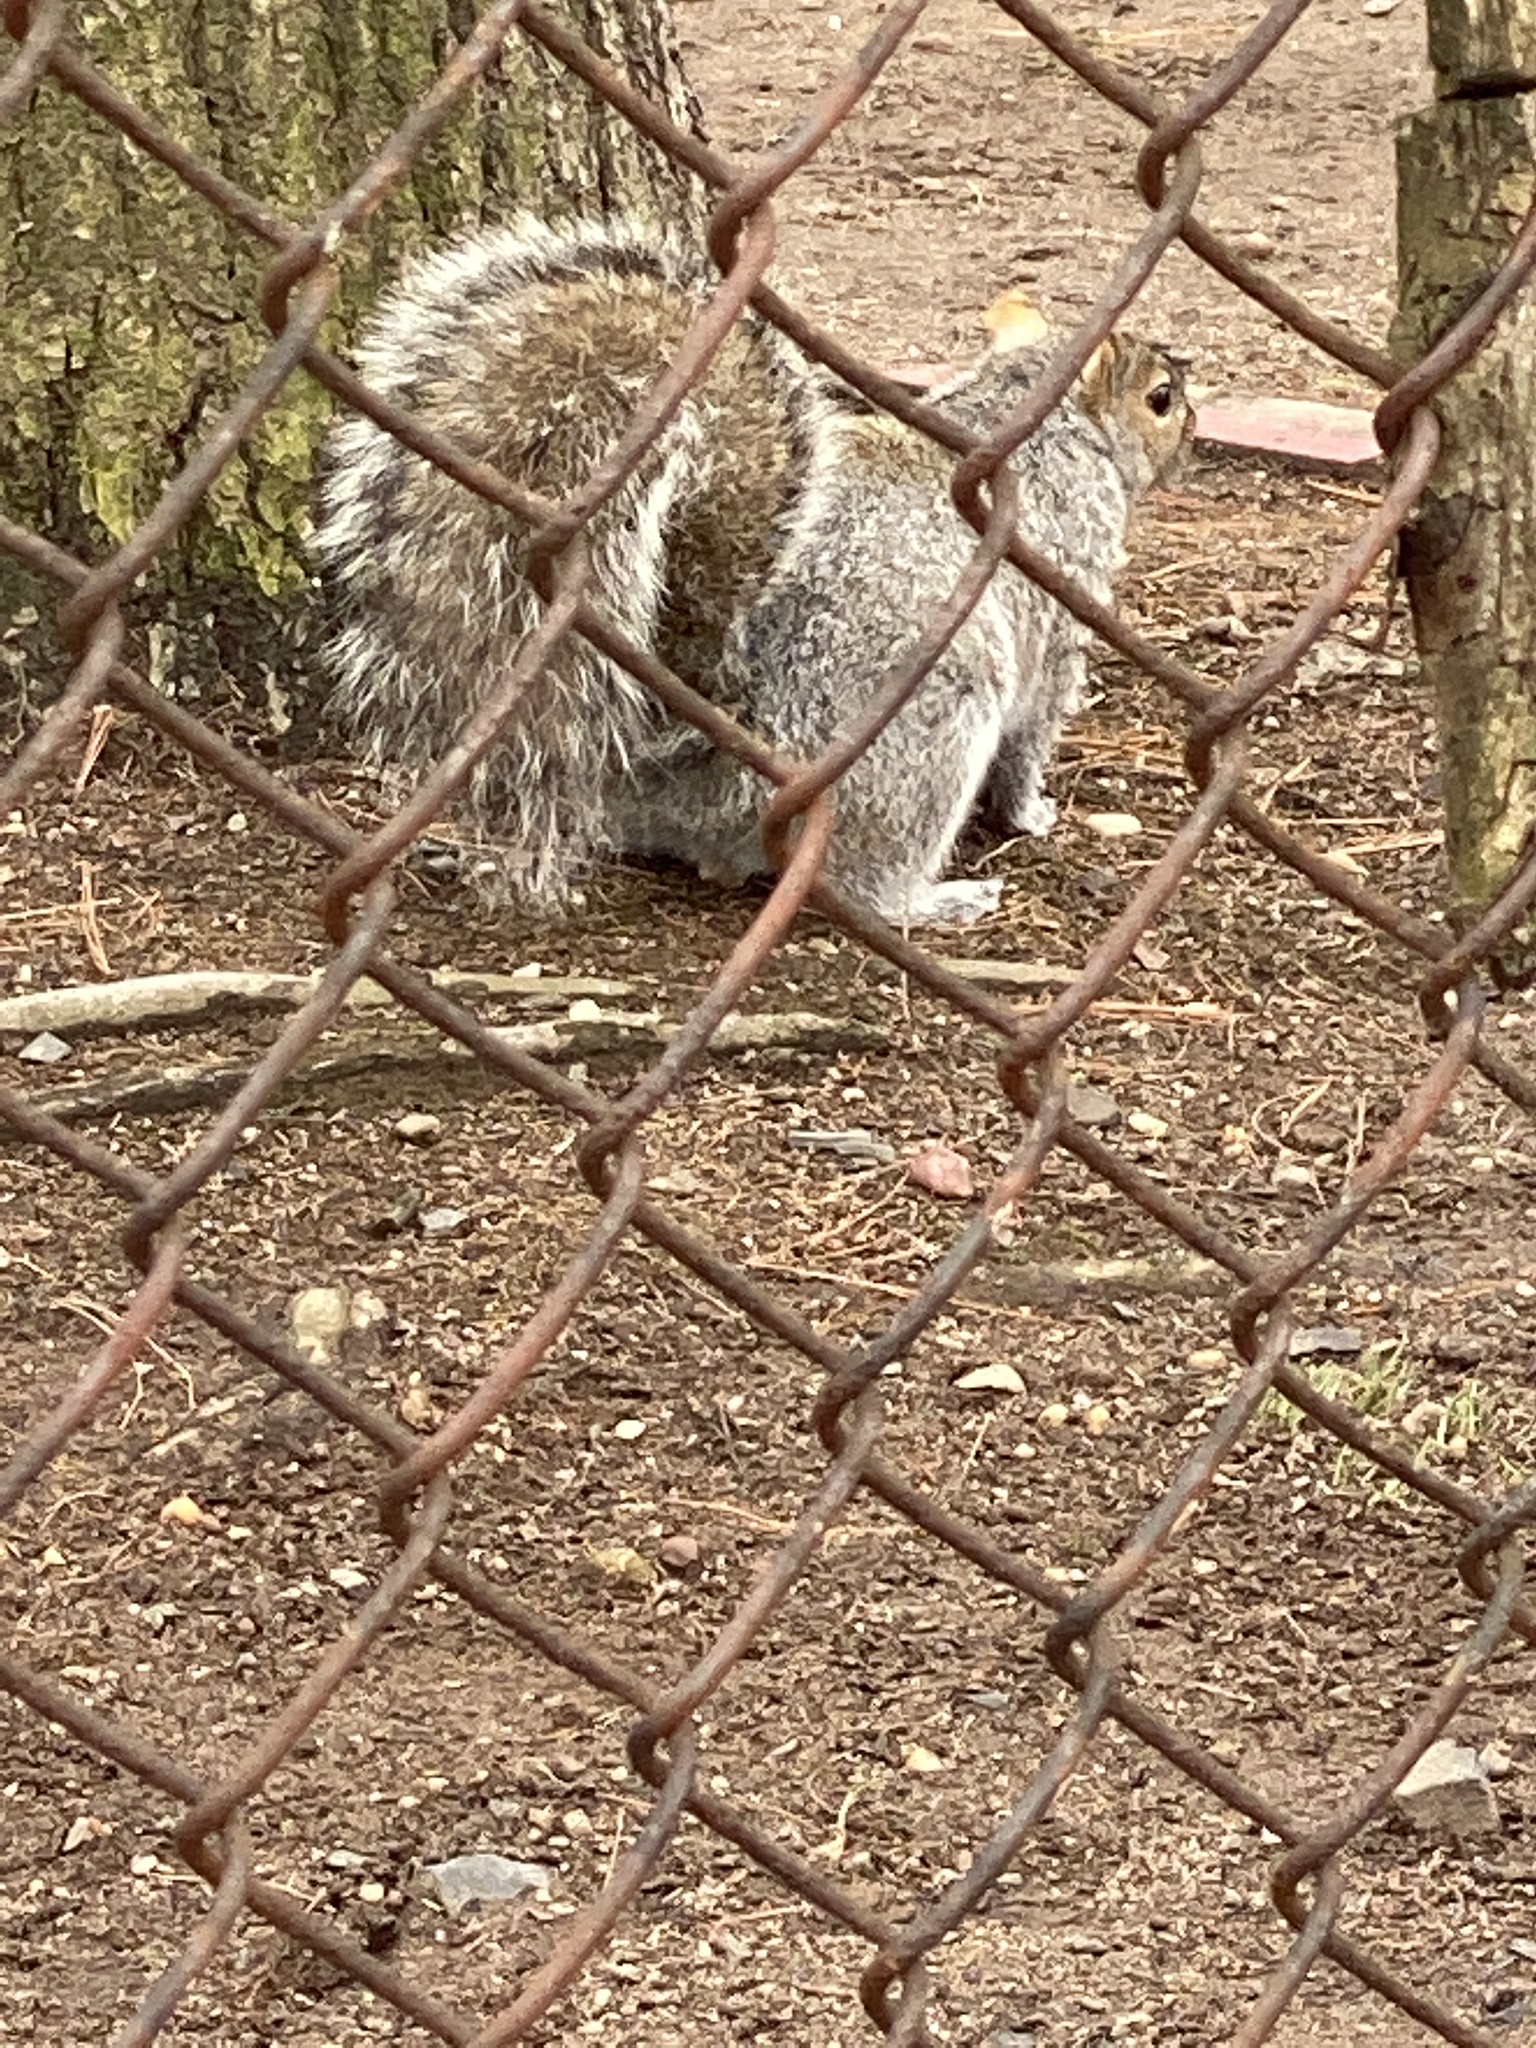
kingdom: Animalia
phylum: Chordata
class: Mammalia
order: Rodentia
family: Sciuridae
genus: Sciurus
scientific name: Sciurus carolinensis
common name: Eastern gray squirrel
